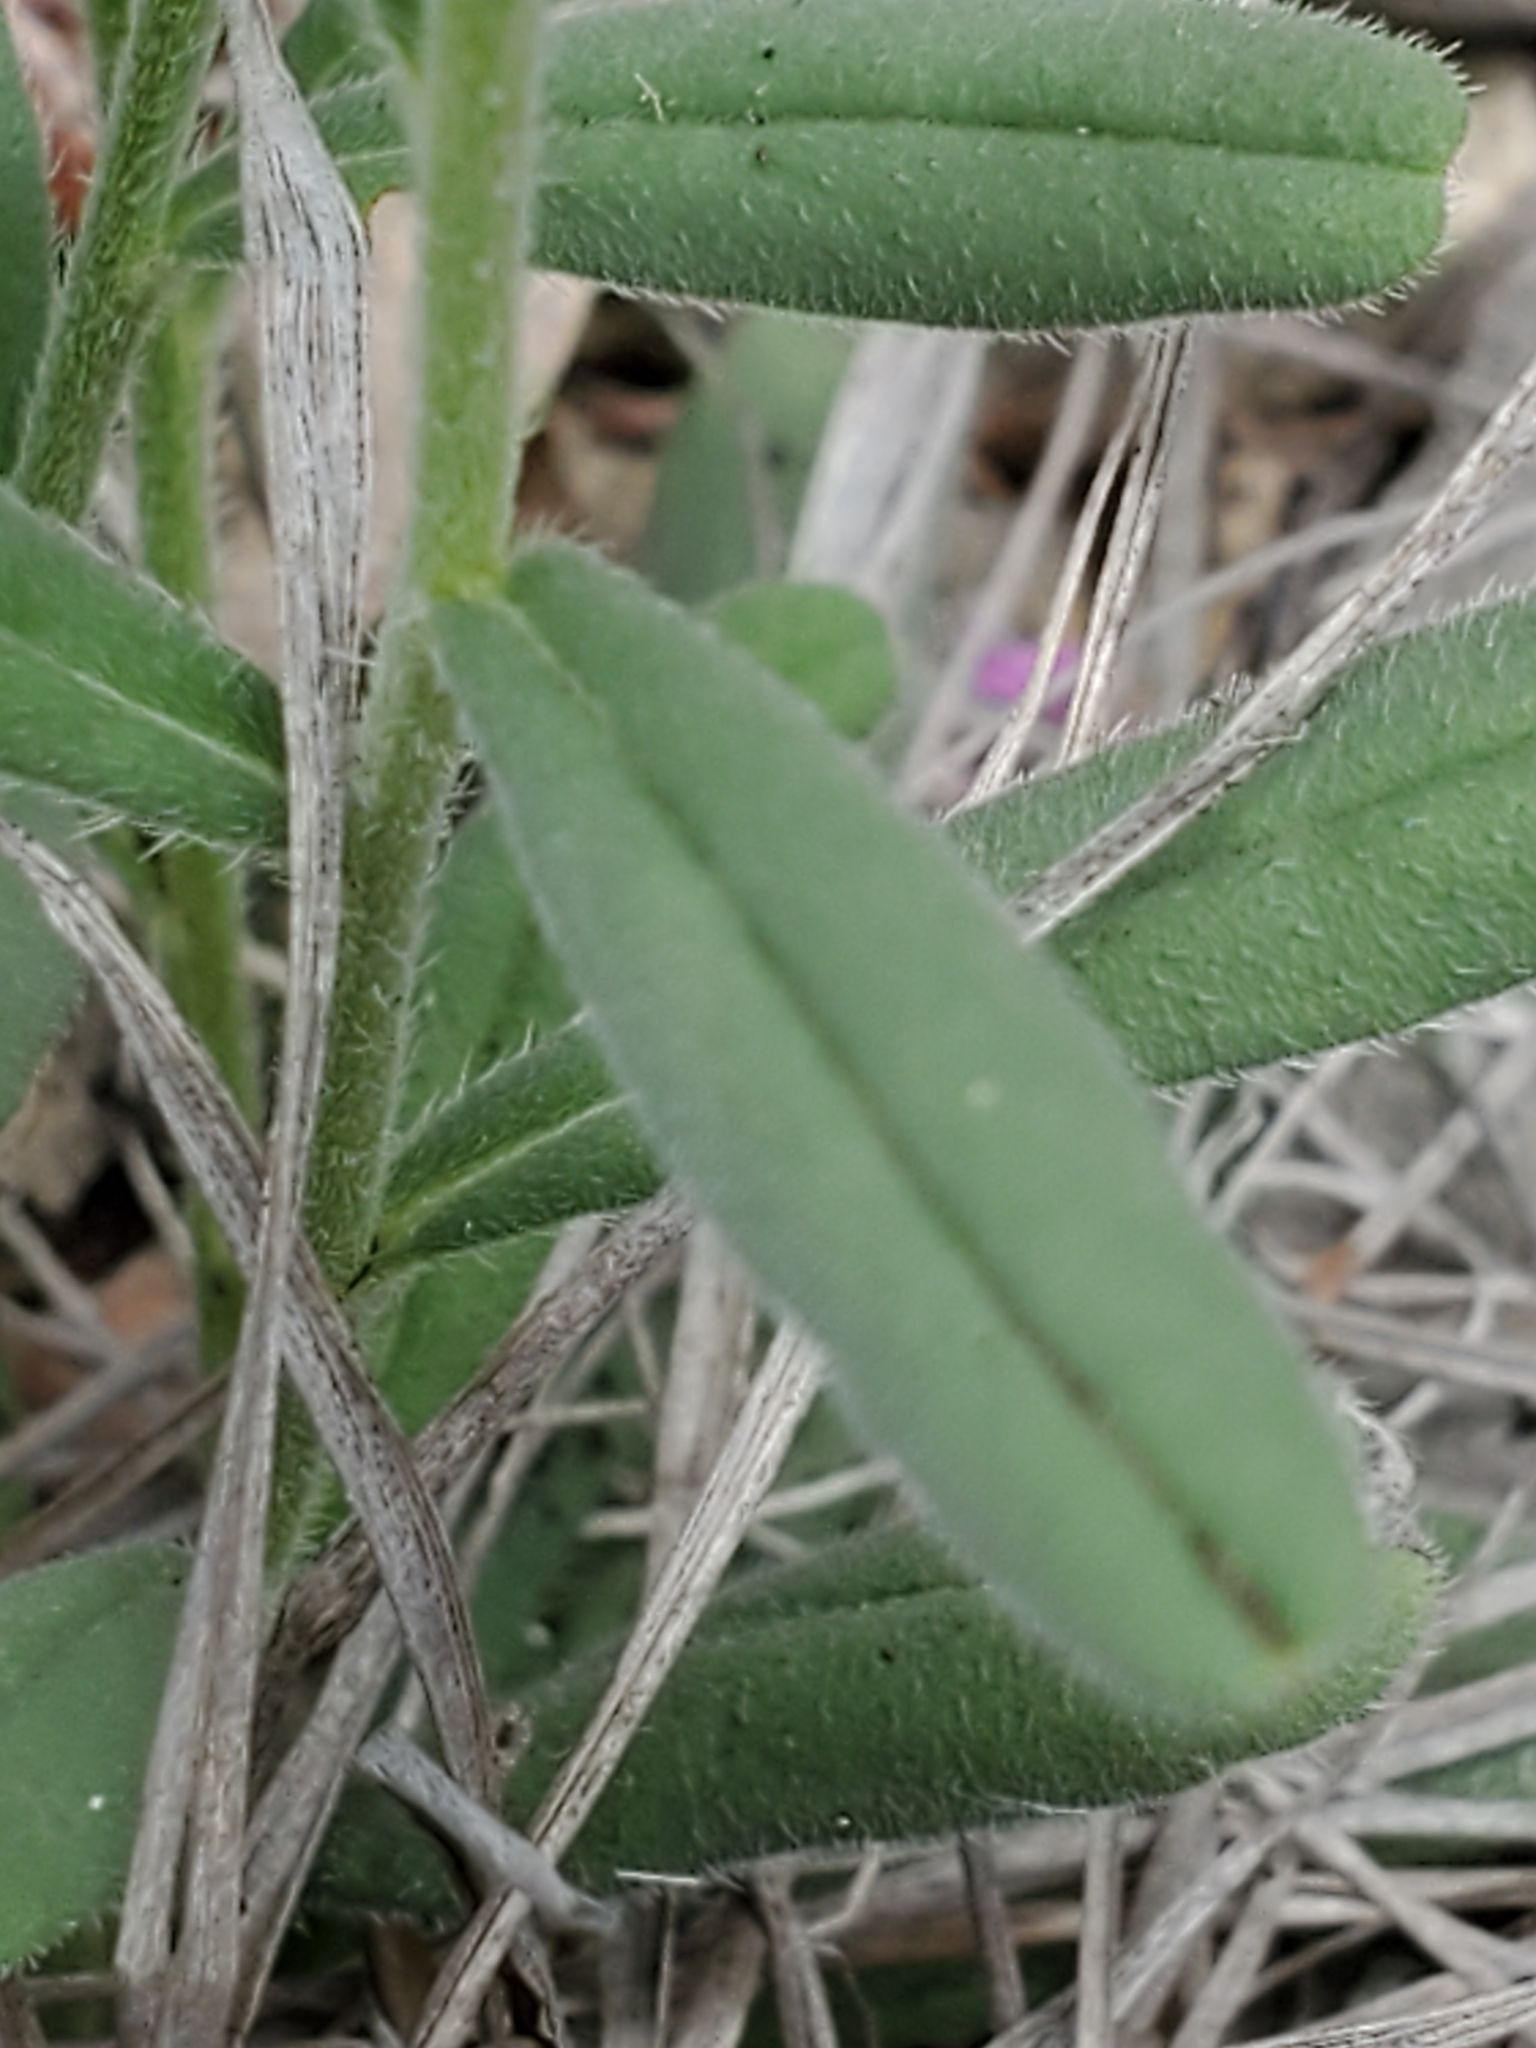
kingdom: Plantae
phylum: Tracheophyta
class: Magnoliopsida
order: Boraginales
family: Boraginaceae
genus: Lithospermum
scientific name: Lithospermum mirabile
